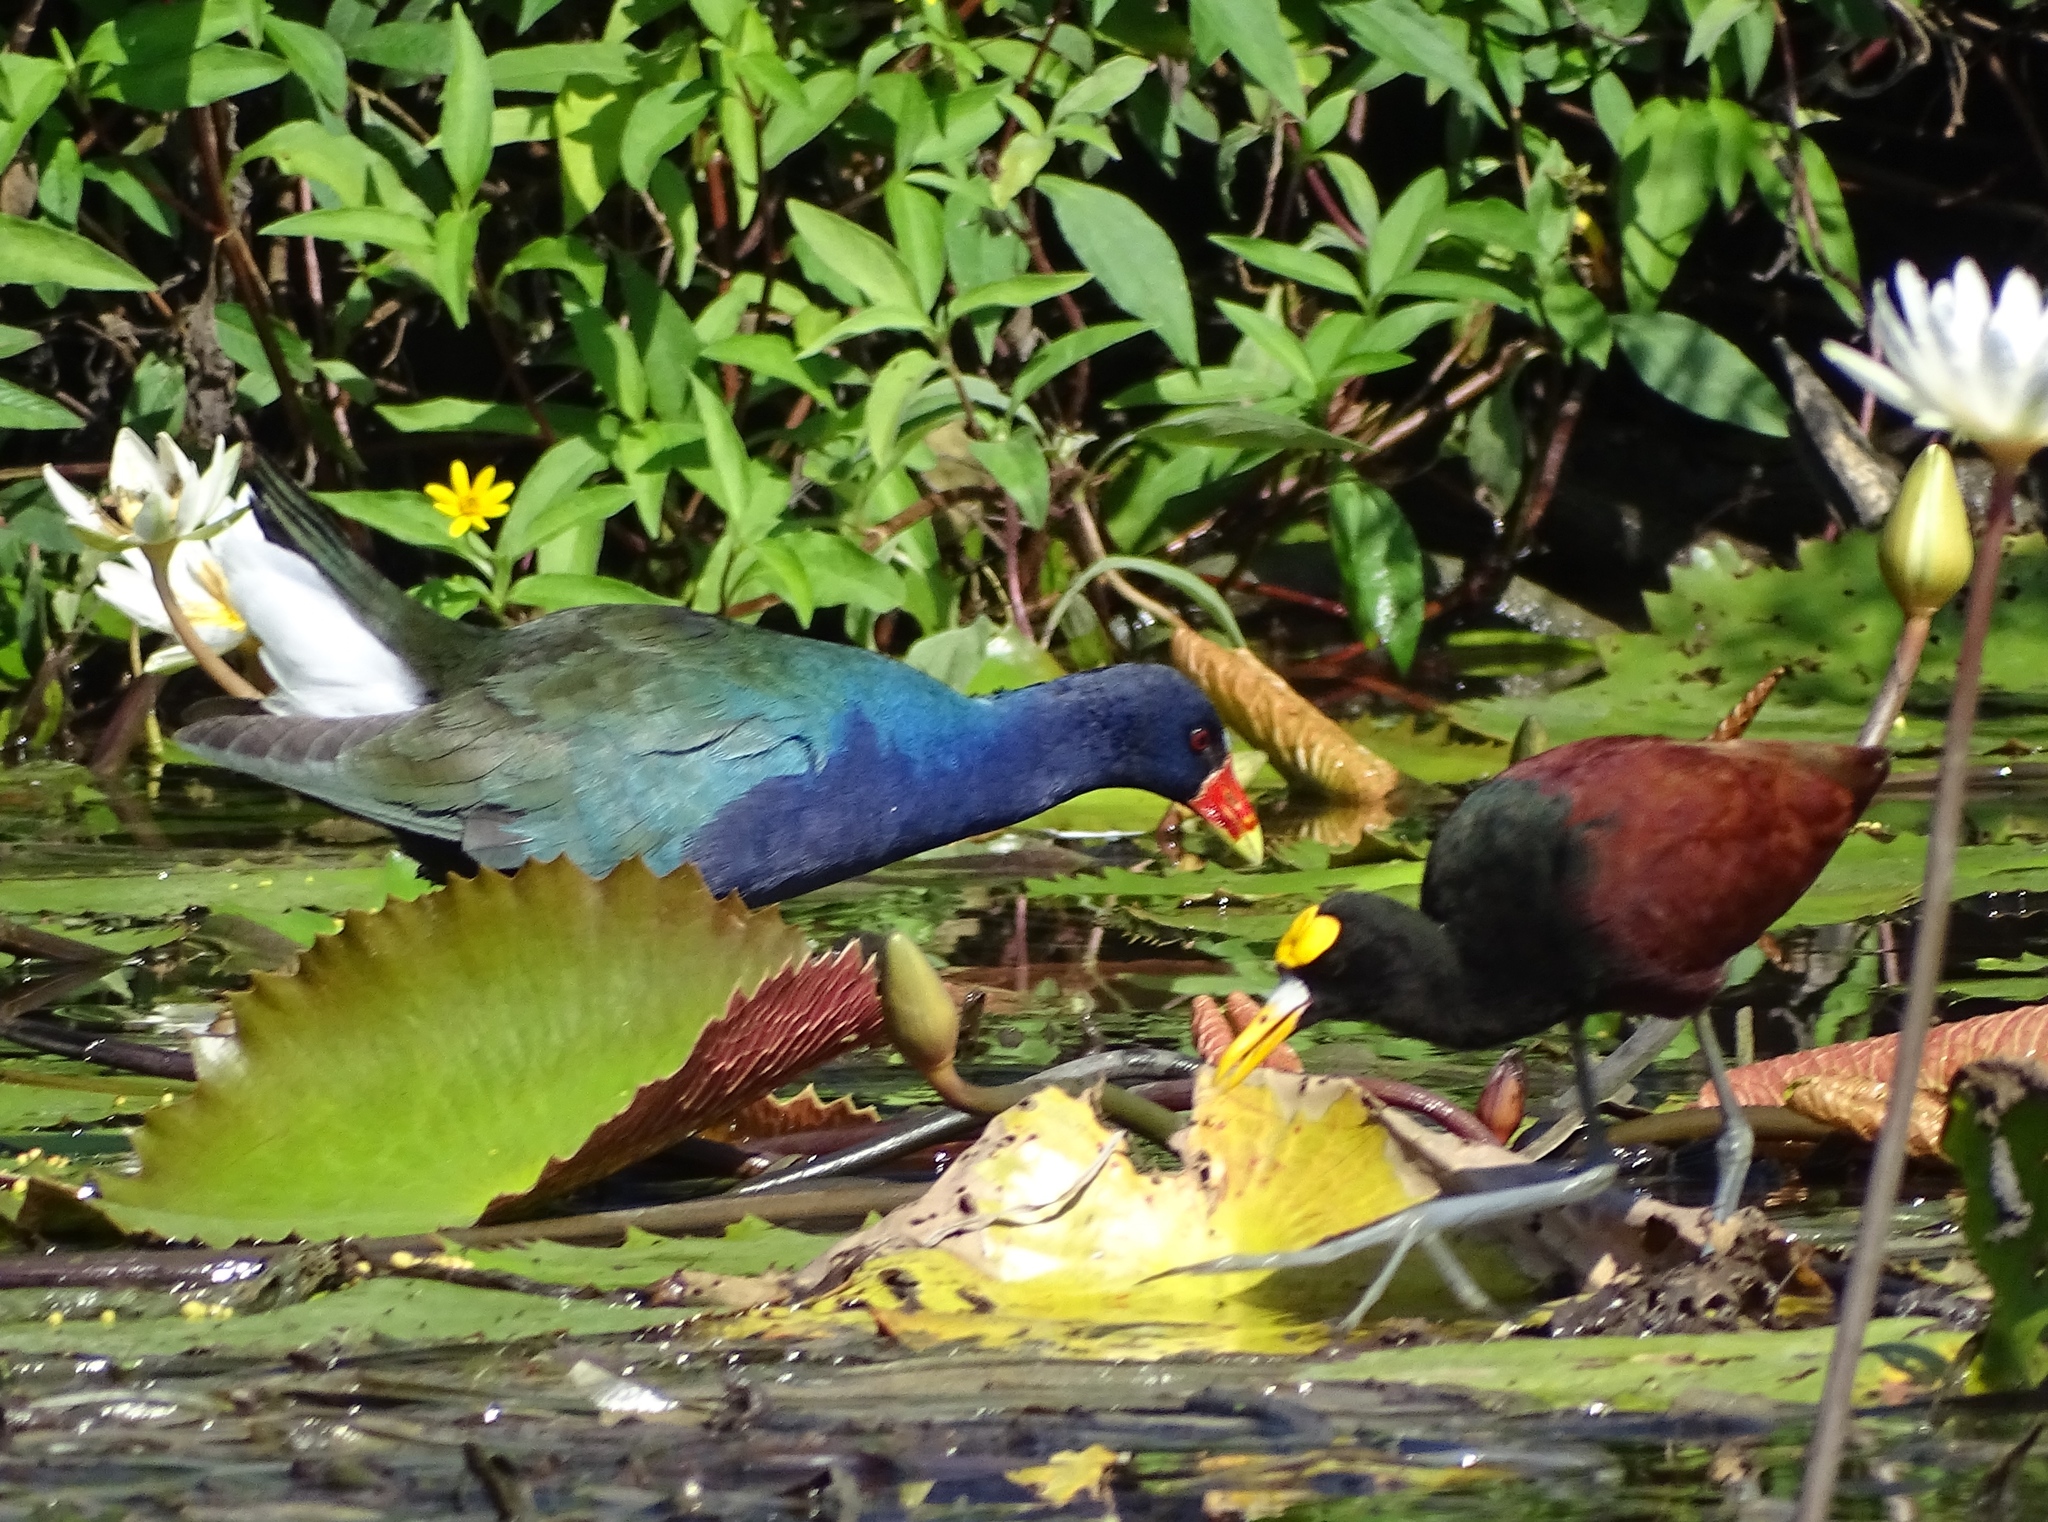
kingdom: Animalia
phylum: Chordata
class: Aves
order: Gruiformes
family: Rallidae
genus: Porphyrio
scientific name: Porphyrio martinica
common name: Purple gallinule
